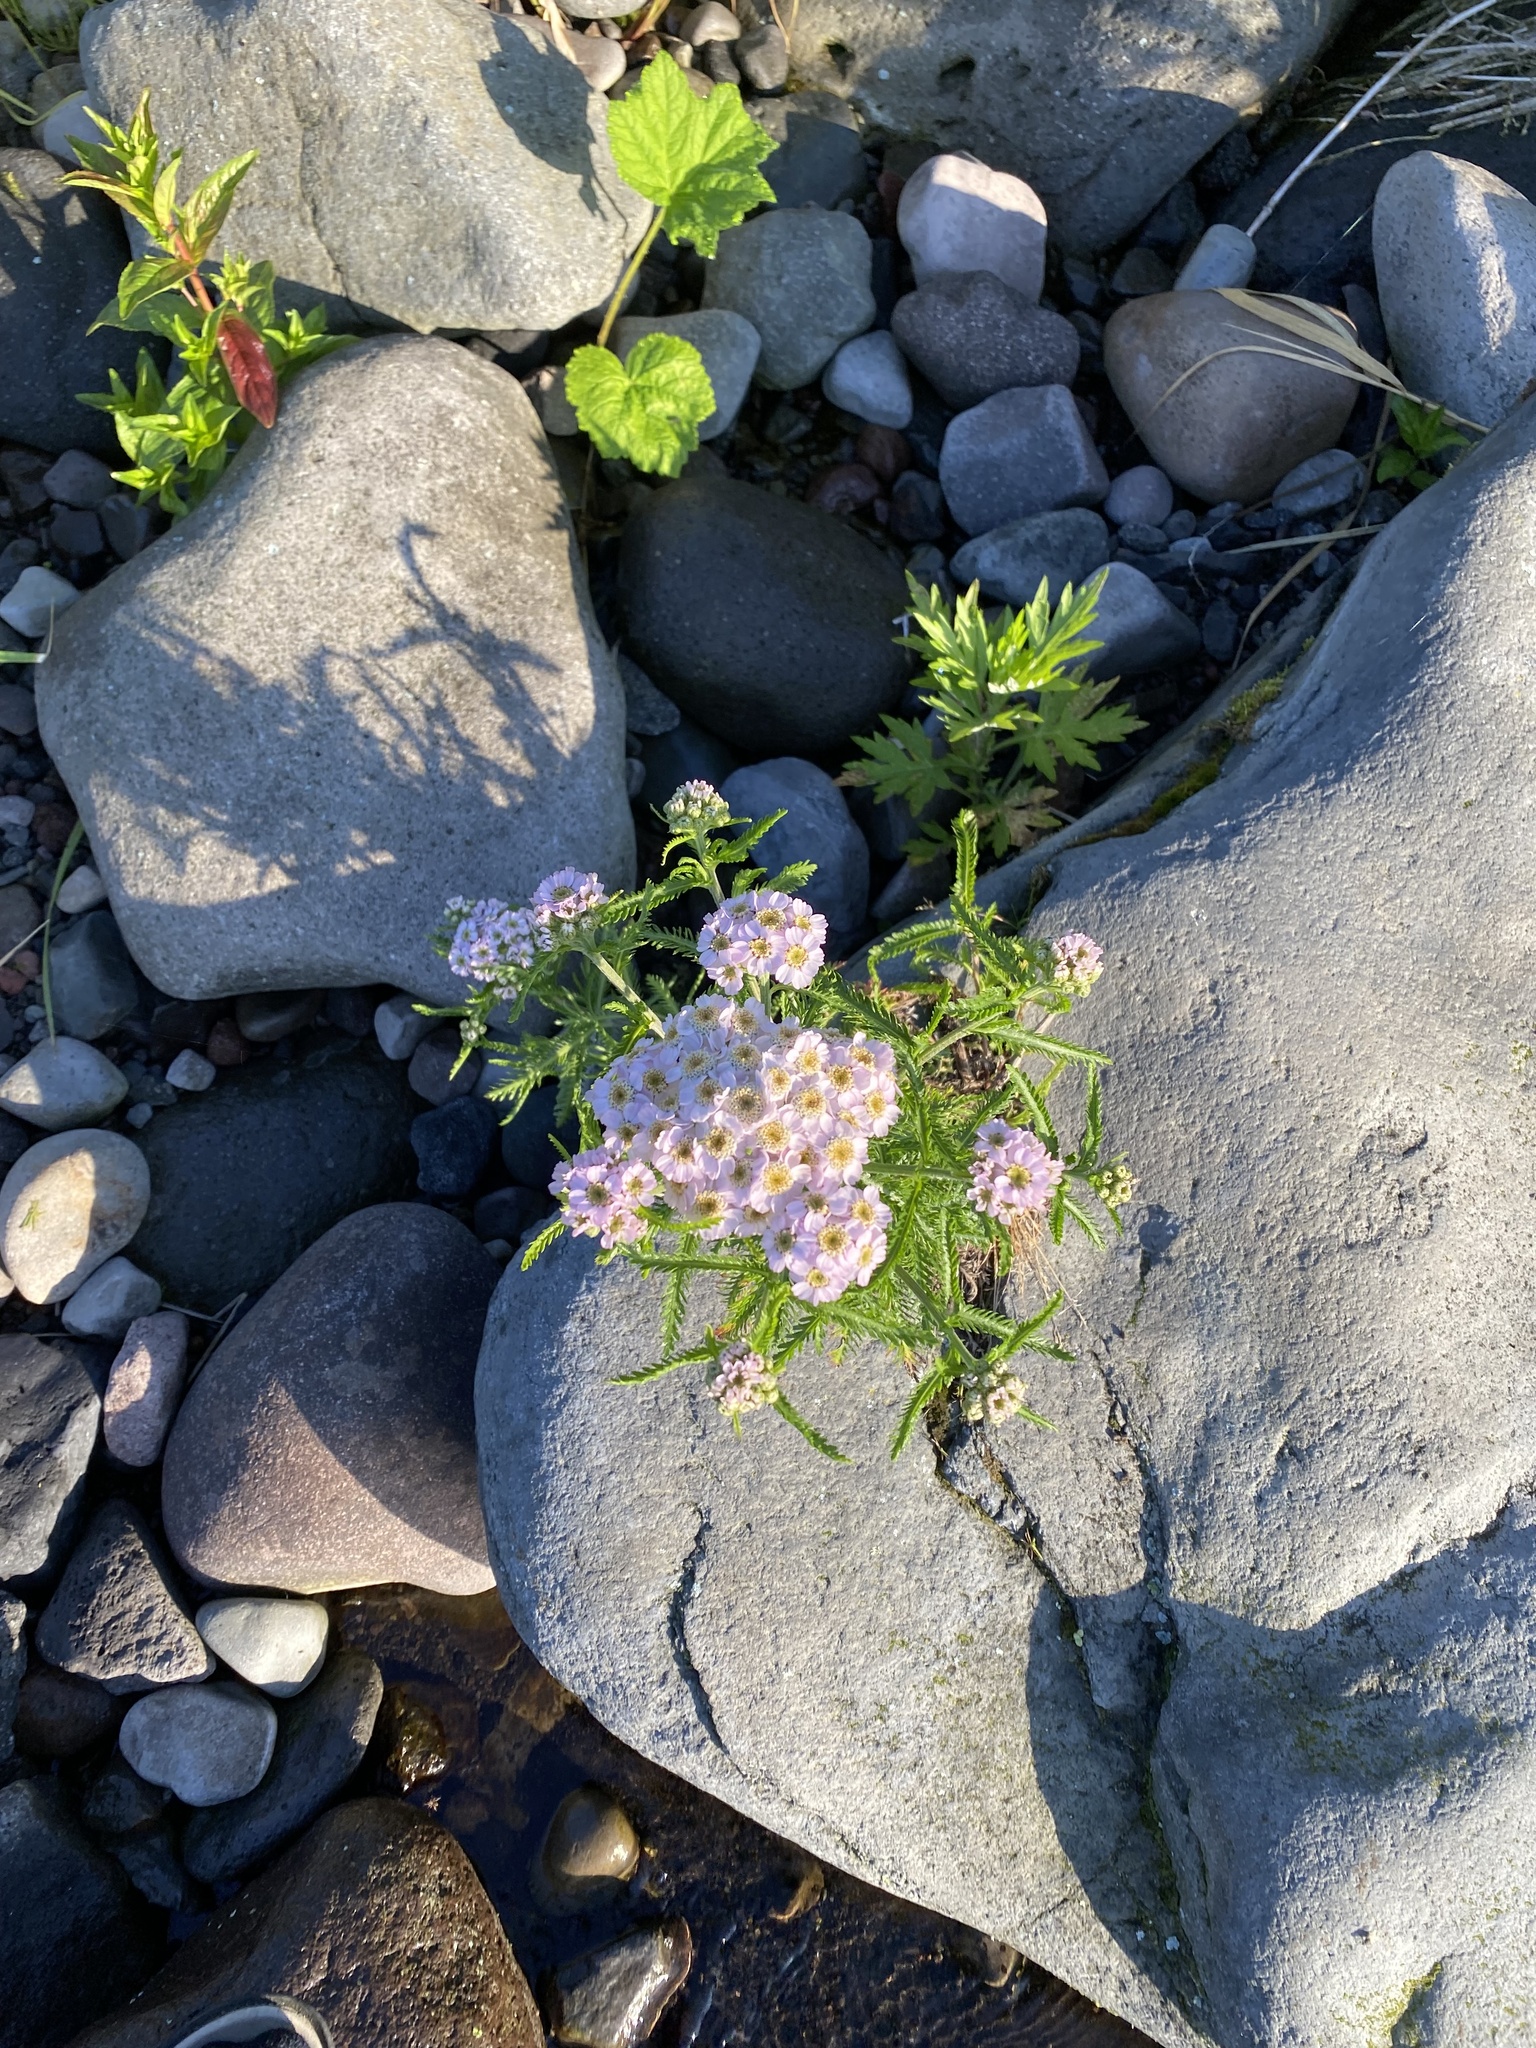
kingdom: Plantae
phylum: Tracheophyta
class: Magnoliopsida
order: Asterales
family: Asteraceae
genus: Achillea
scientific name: Achillea alpina
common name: Siberian yarrow
